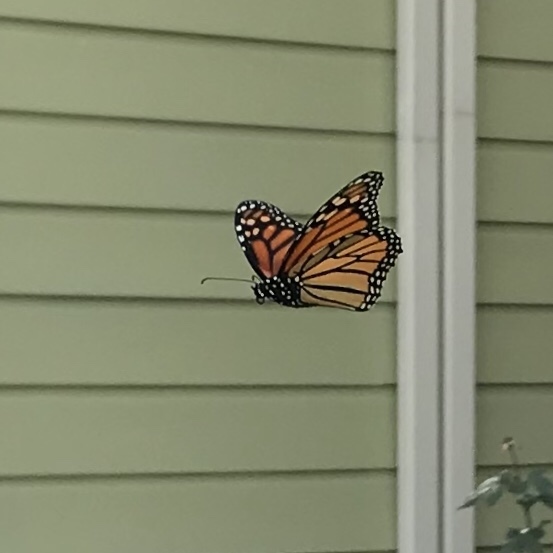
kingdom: Animalia
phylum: Arthropoda
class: Insecta
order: Lepidoptera
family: Nymphalidae
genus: Danaus
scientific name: Danaus plexippus
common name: Monarch
